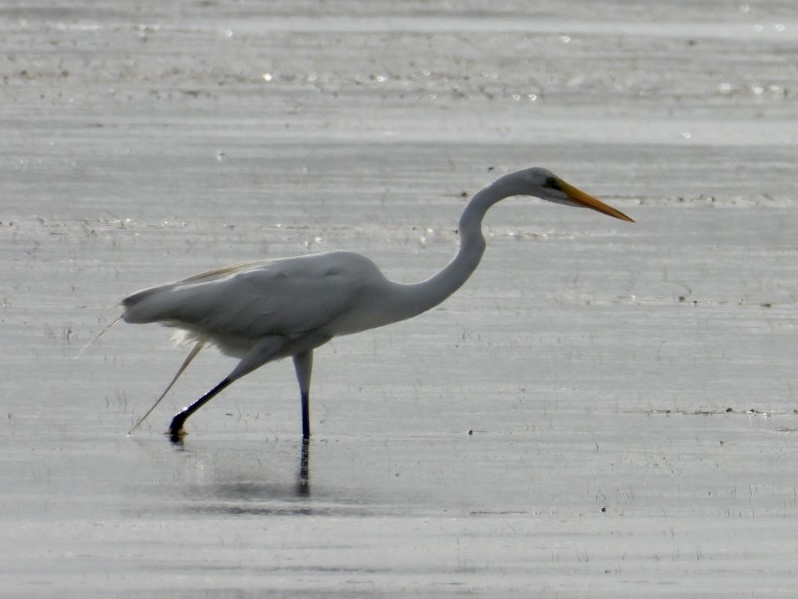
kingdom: Animalia
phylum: Chordata
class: Aves
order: Pelecaniformes
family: Ardeidae
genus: Ardea
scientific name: Ardea alba
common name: Great egret
